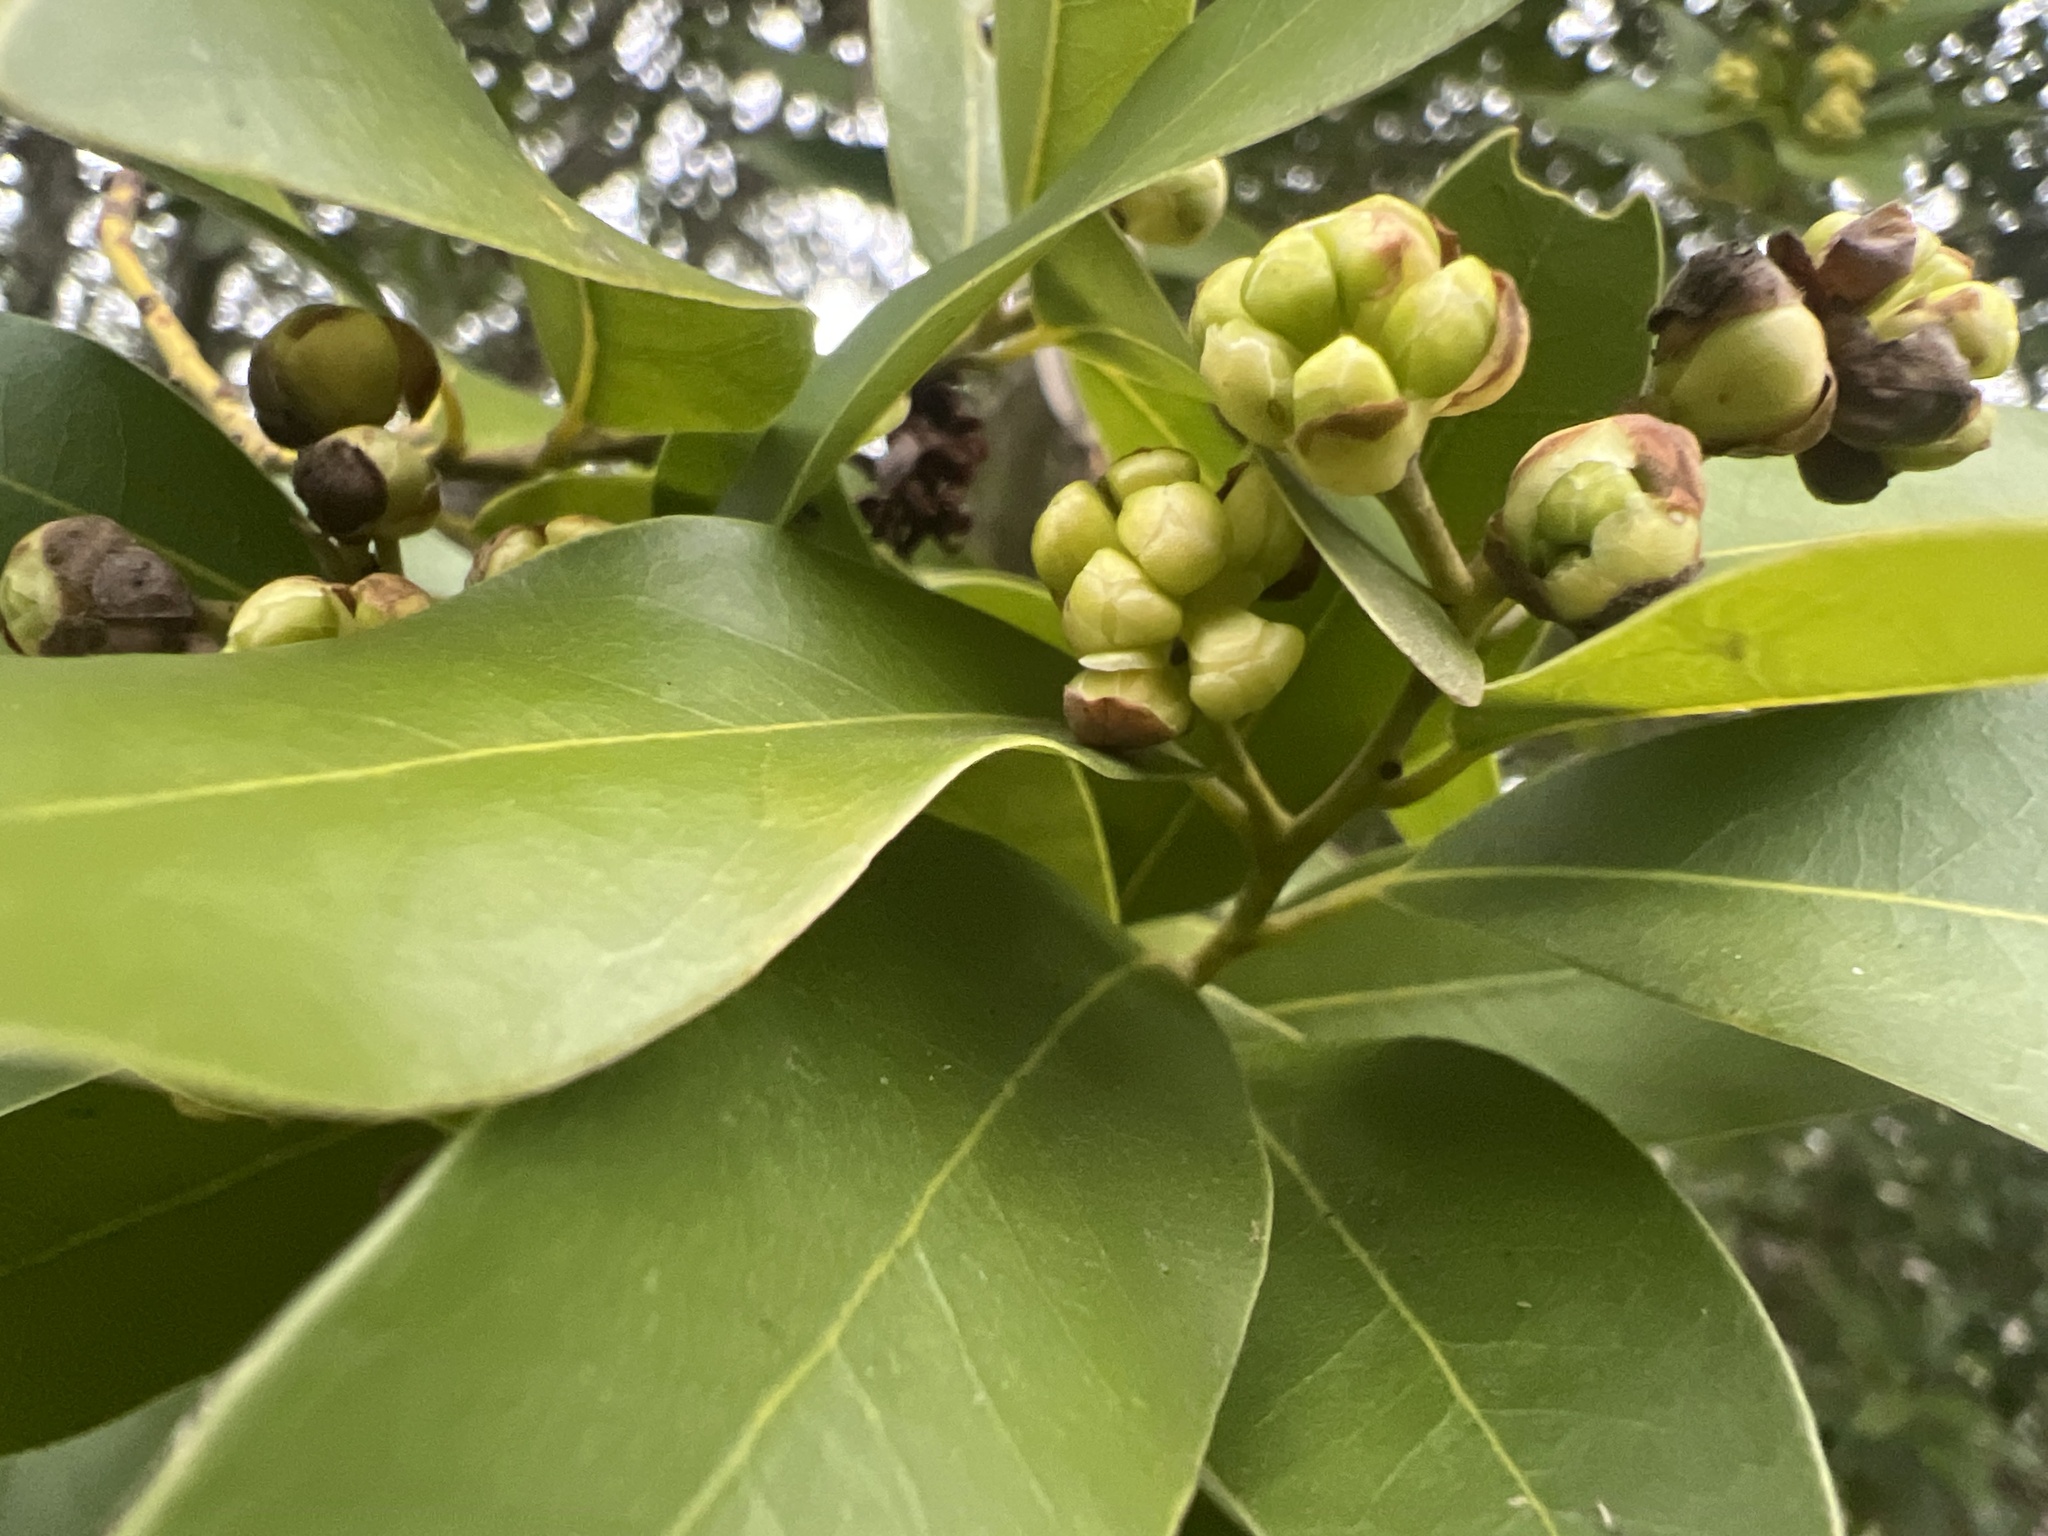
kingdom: Plantae
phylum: Tracheophyta
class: Magnoliopsida
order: Laurales
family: Lauraceae
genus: Umbellularia
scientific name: Umbellularia californica
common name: California bay
